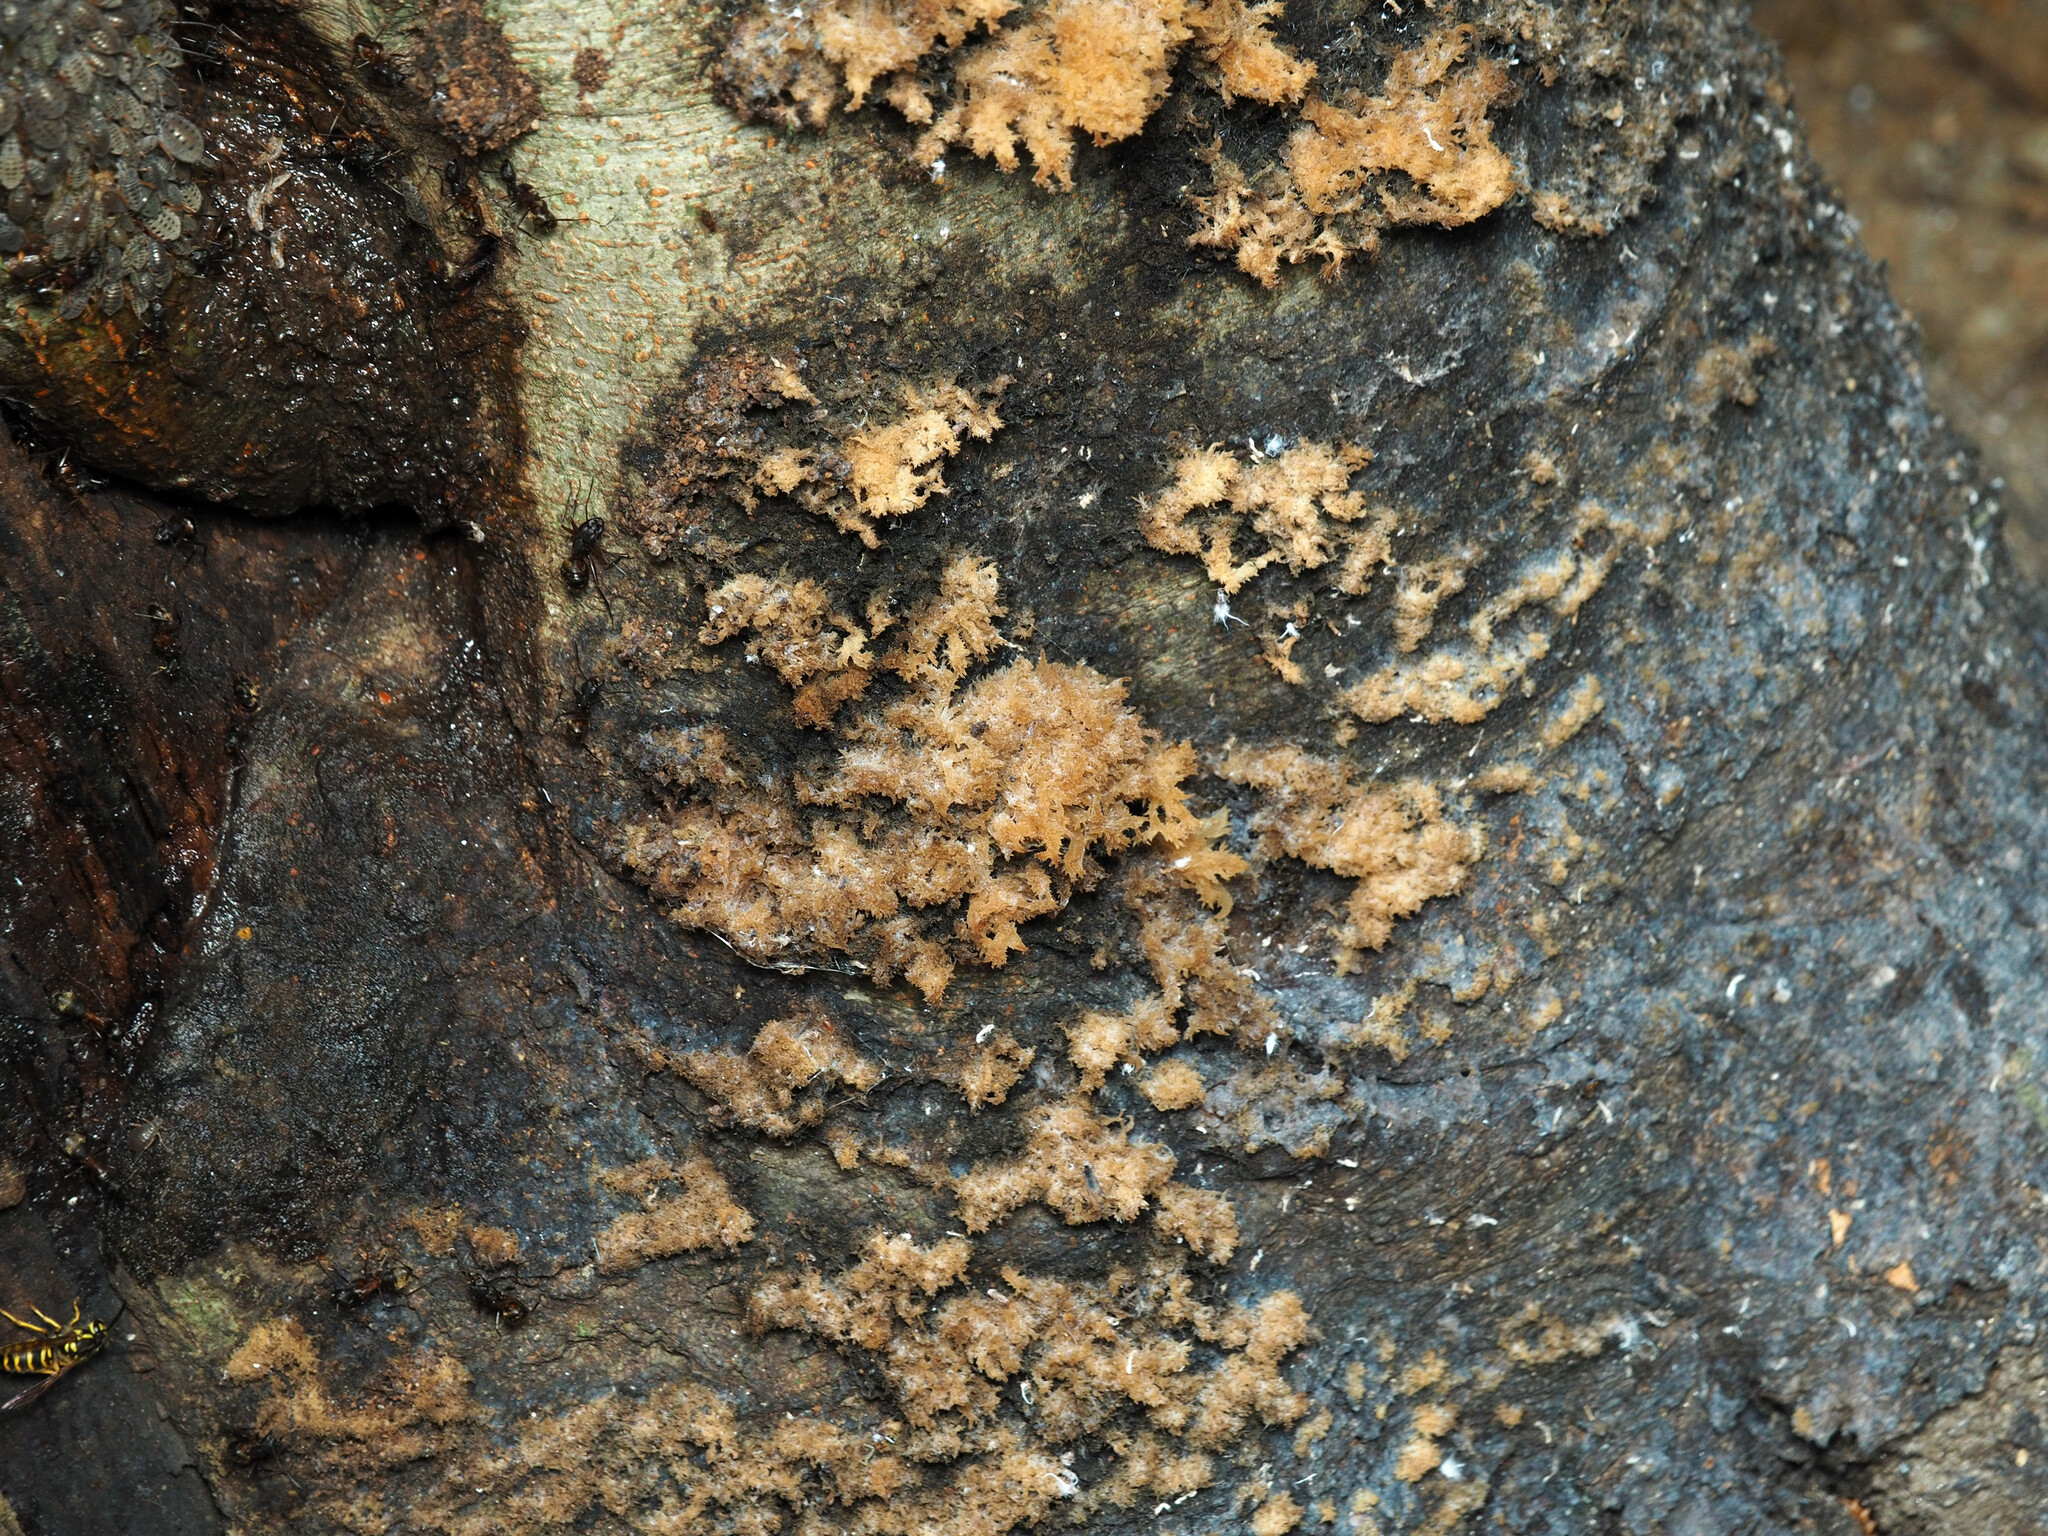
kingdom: Fungi
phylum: Ascomycota
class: Dothideomycetes
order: Capnodiales
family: Capnodiaceae
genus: Scorias
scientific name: Scorias spongiosa
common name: Black sooty mold
